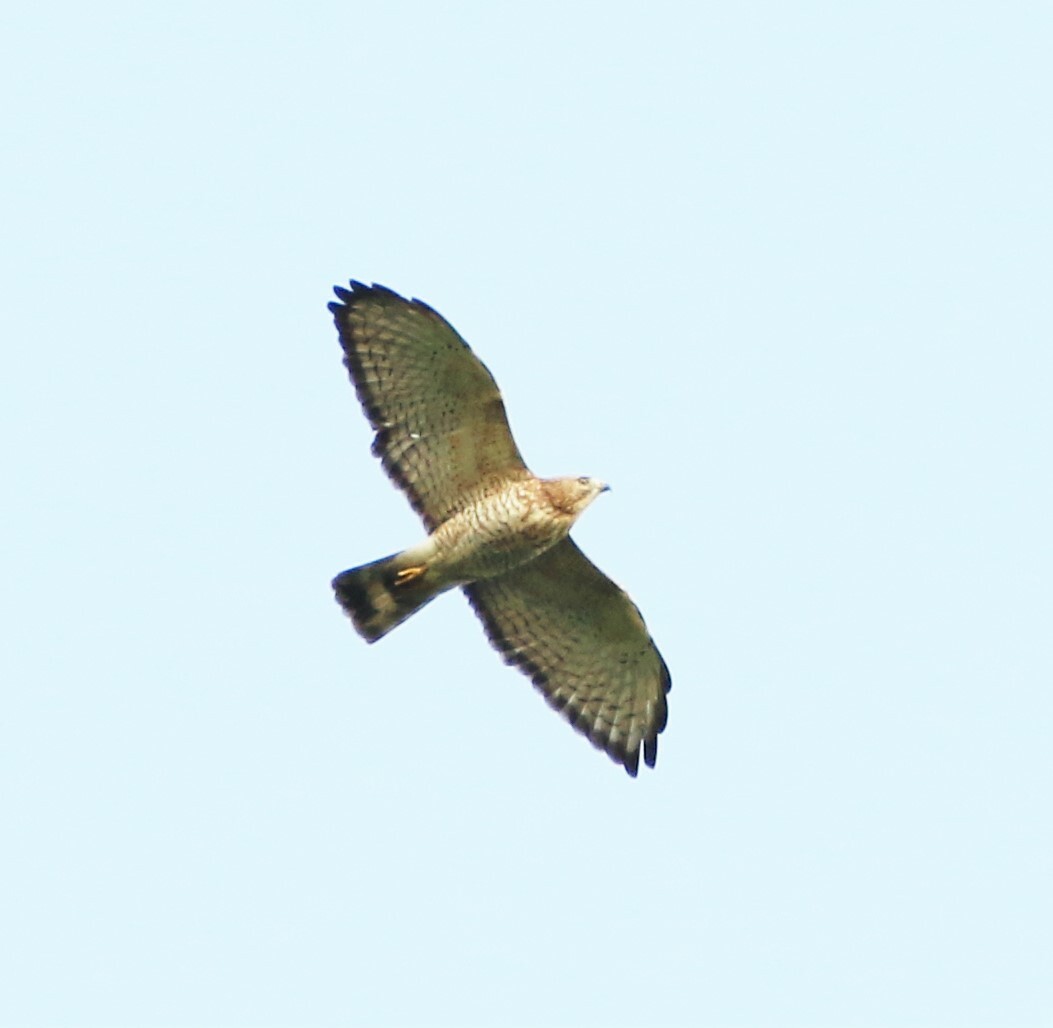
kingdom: Animalia
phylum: Chordata
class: Aves
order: Accipitriformes
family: Accipitridae
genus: Buteo
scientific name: Buteo platypterus
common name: Broad-winged hawk
